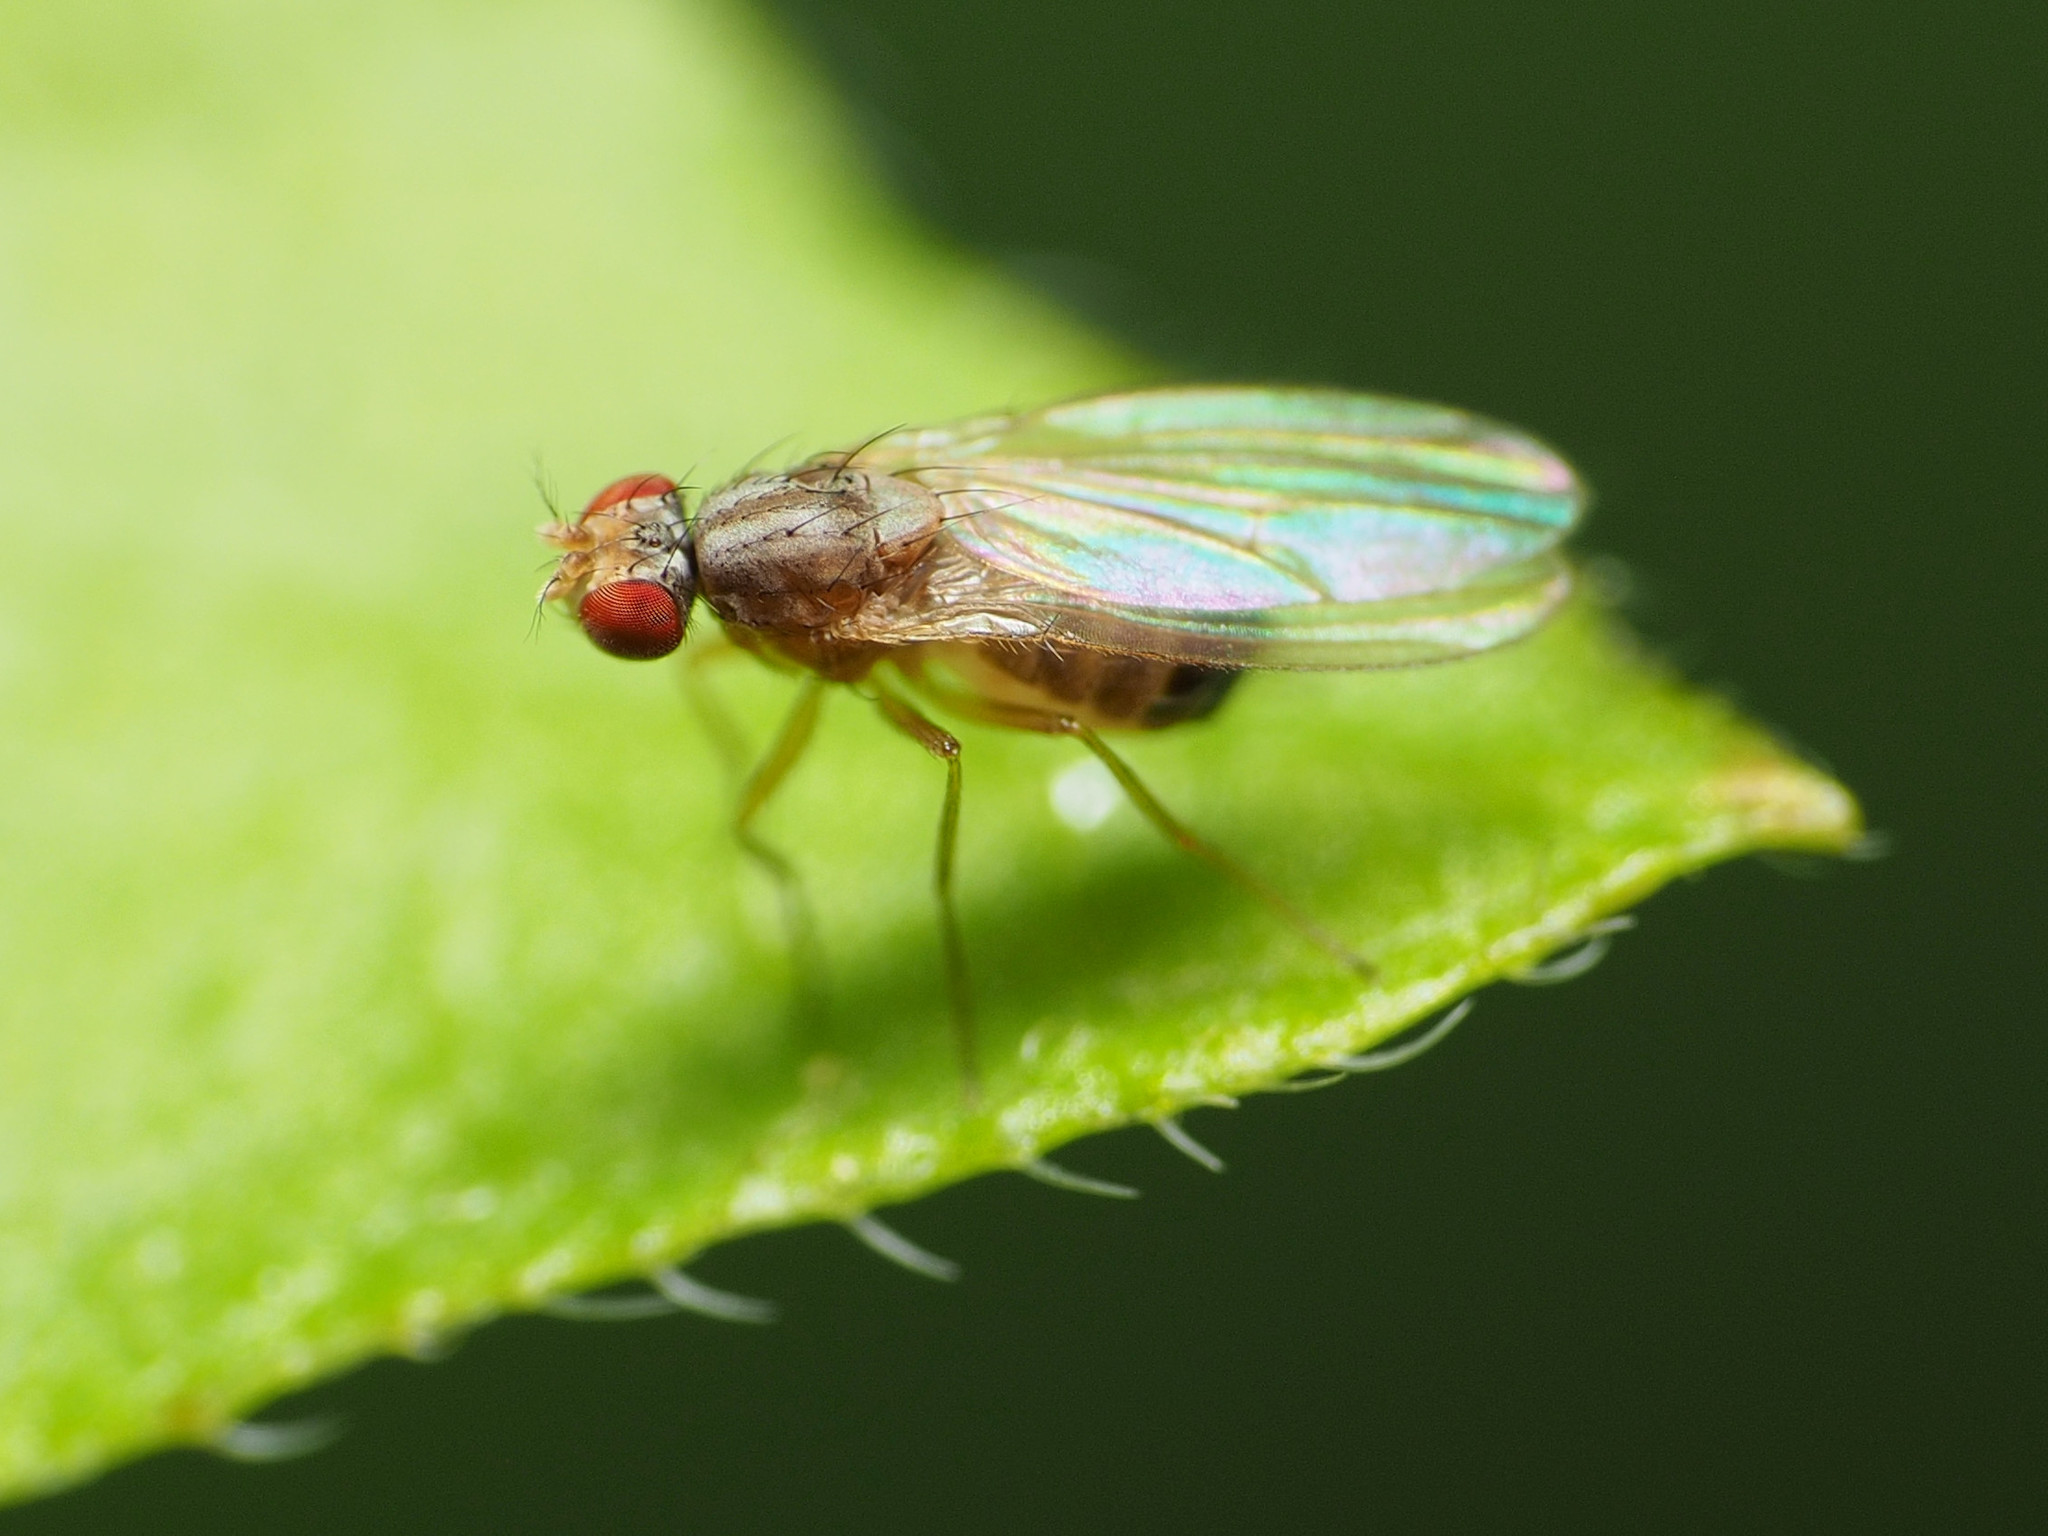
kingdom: Animalia
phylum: Arthropoda
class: Insecta
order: Diptera
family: Drosophilidae
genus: Scaptomyza
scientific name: Scaptomyza pallida
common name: Pomace fly
